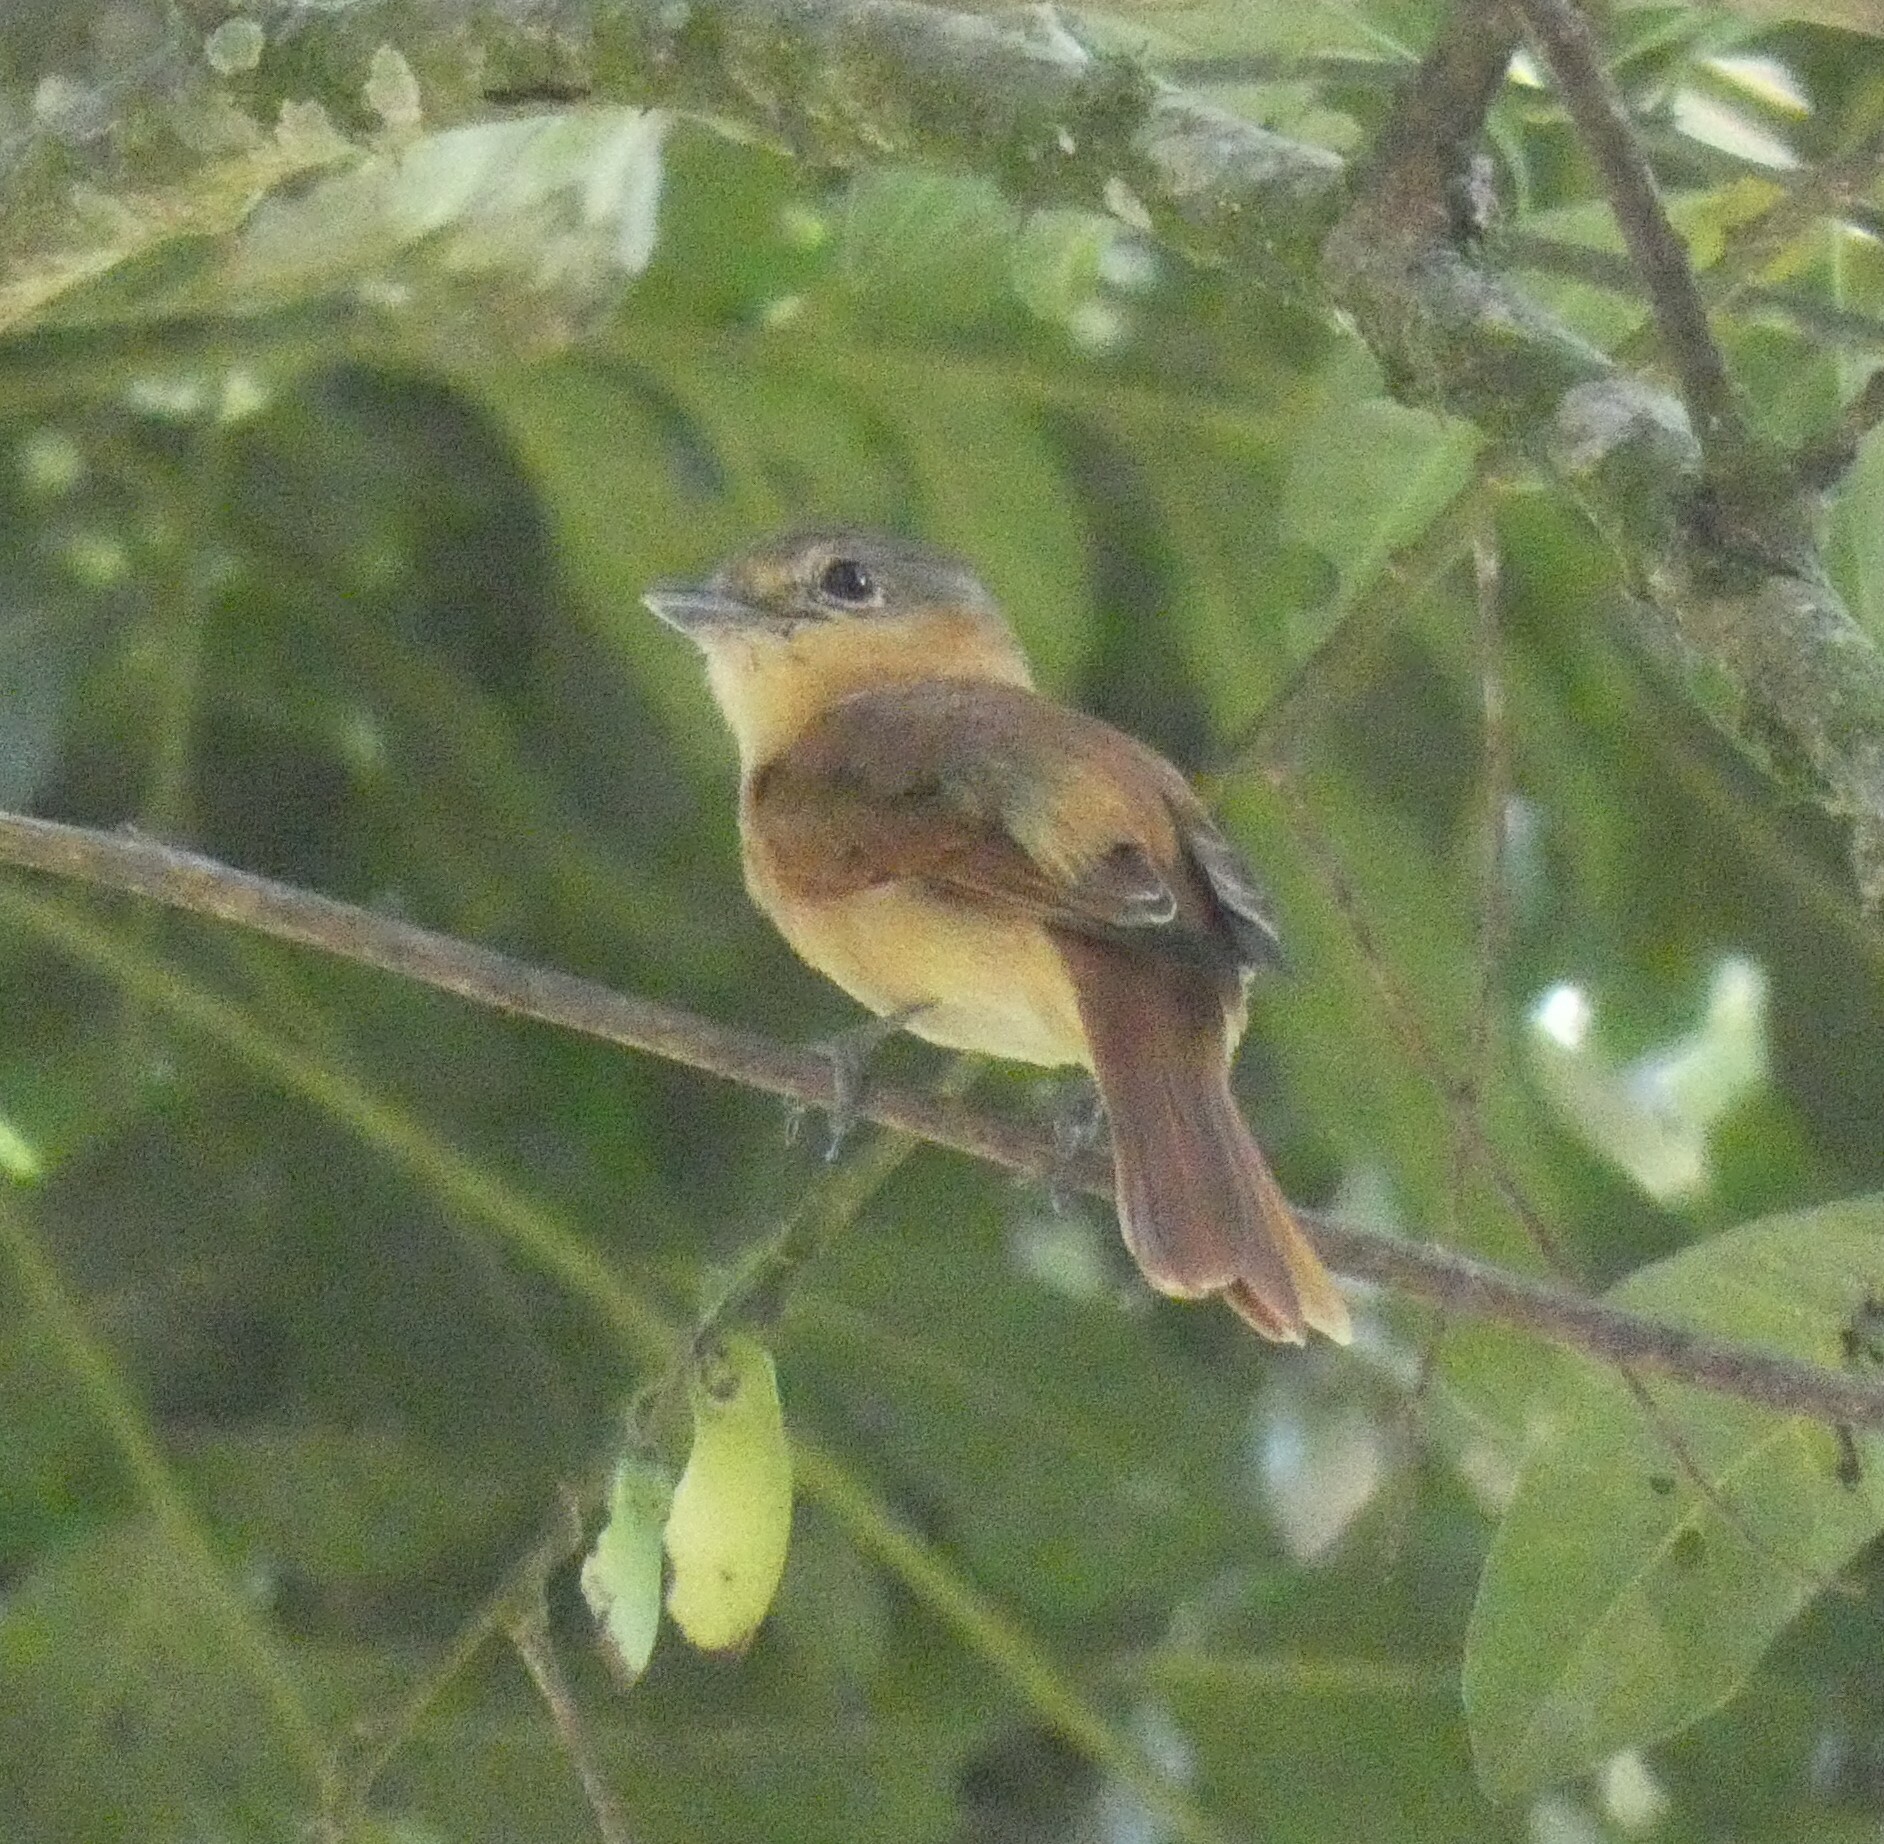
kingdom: Animalia
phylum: Chordata
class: Aves
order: Passeriformes
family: Cotingidae
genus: Pachyramphus
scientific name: Pachyramphus castaneus
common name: Chestnut-crowned becard
